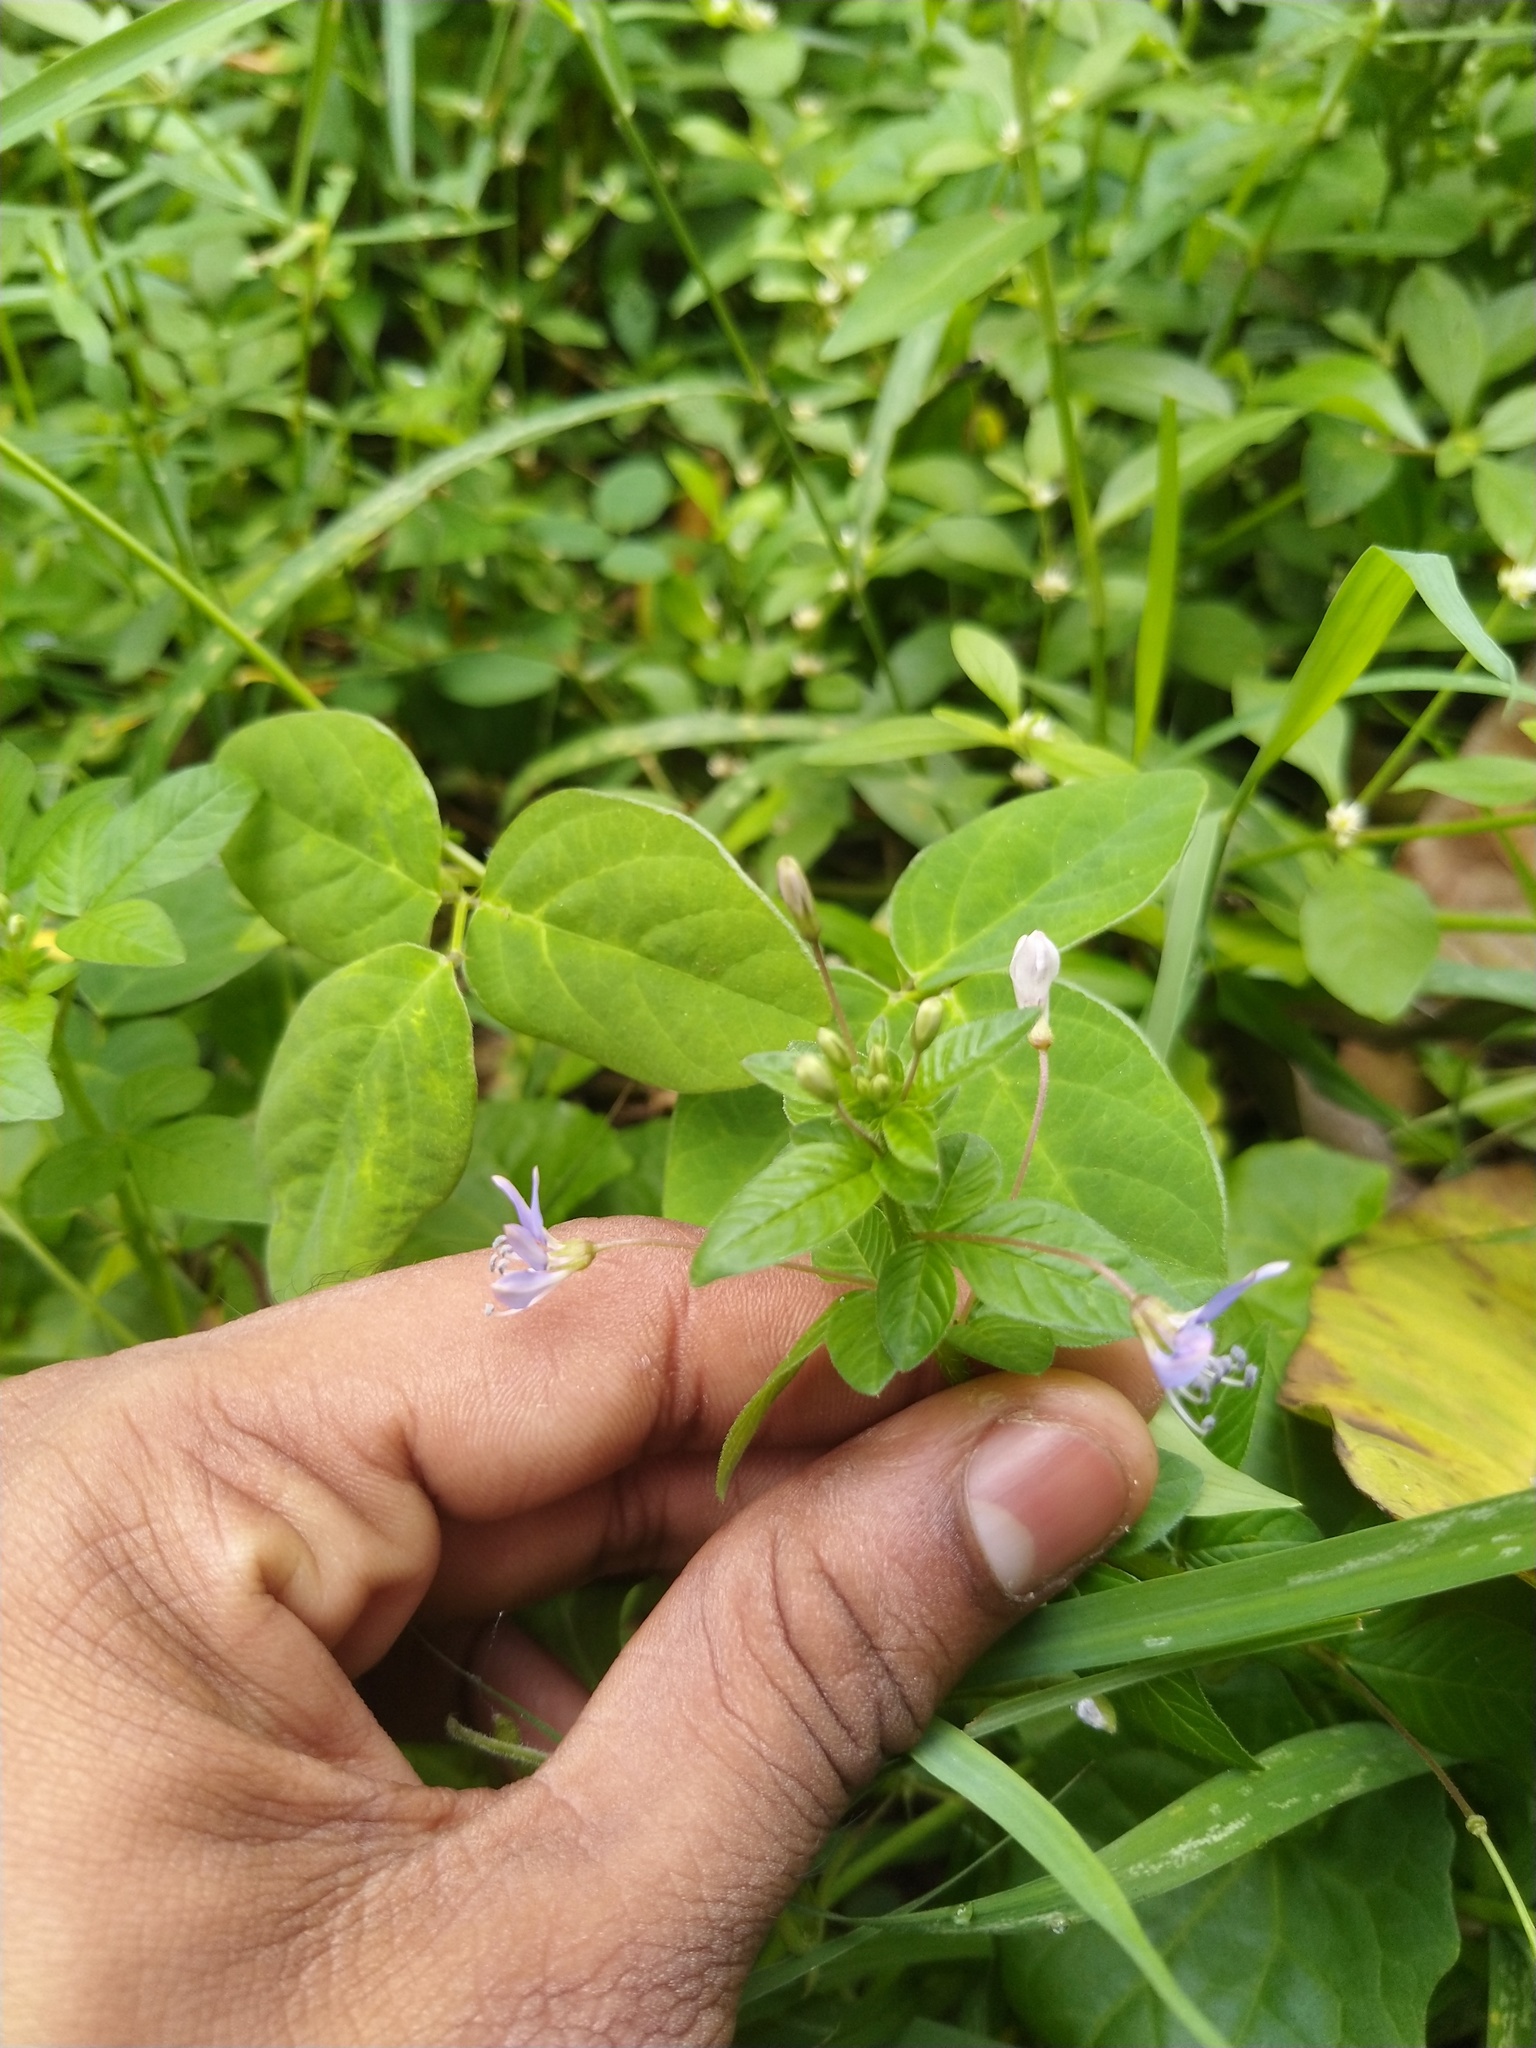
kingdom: Plantae
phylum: Tracheophyta
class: Magnoliopsida
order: Brassicales
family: Cleomaceae
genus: Sieruela
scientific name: Sieruela rutidosperma
